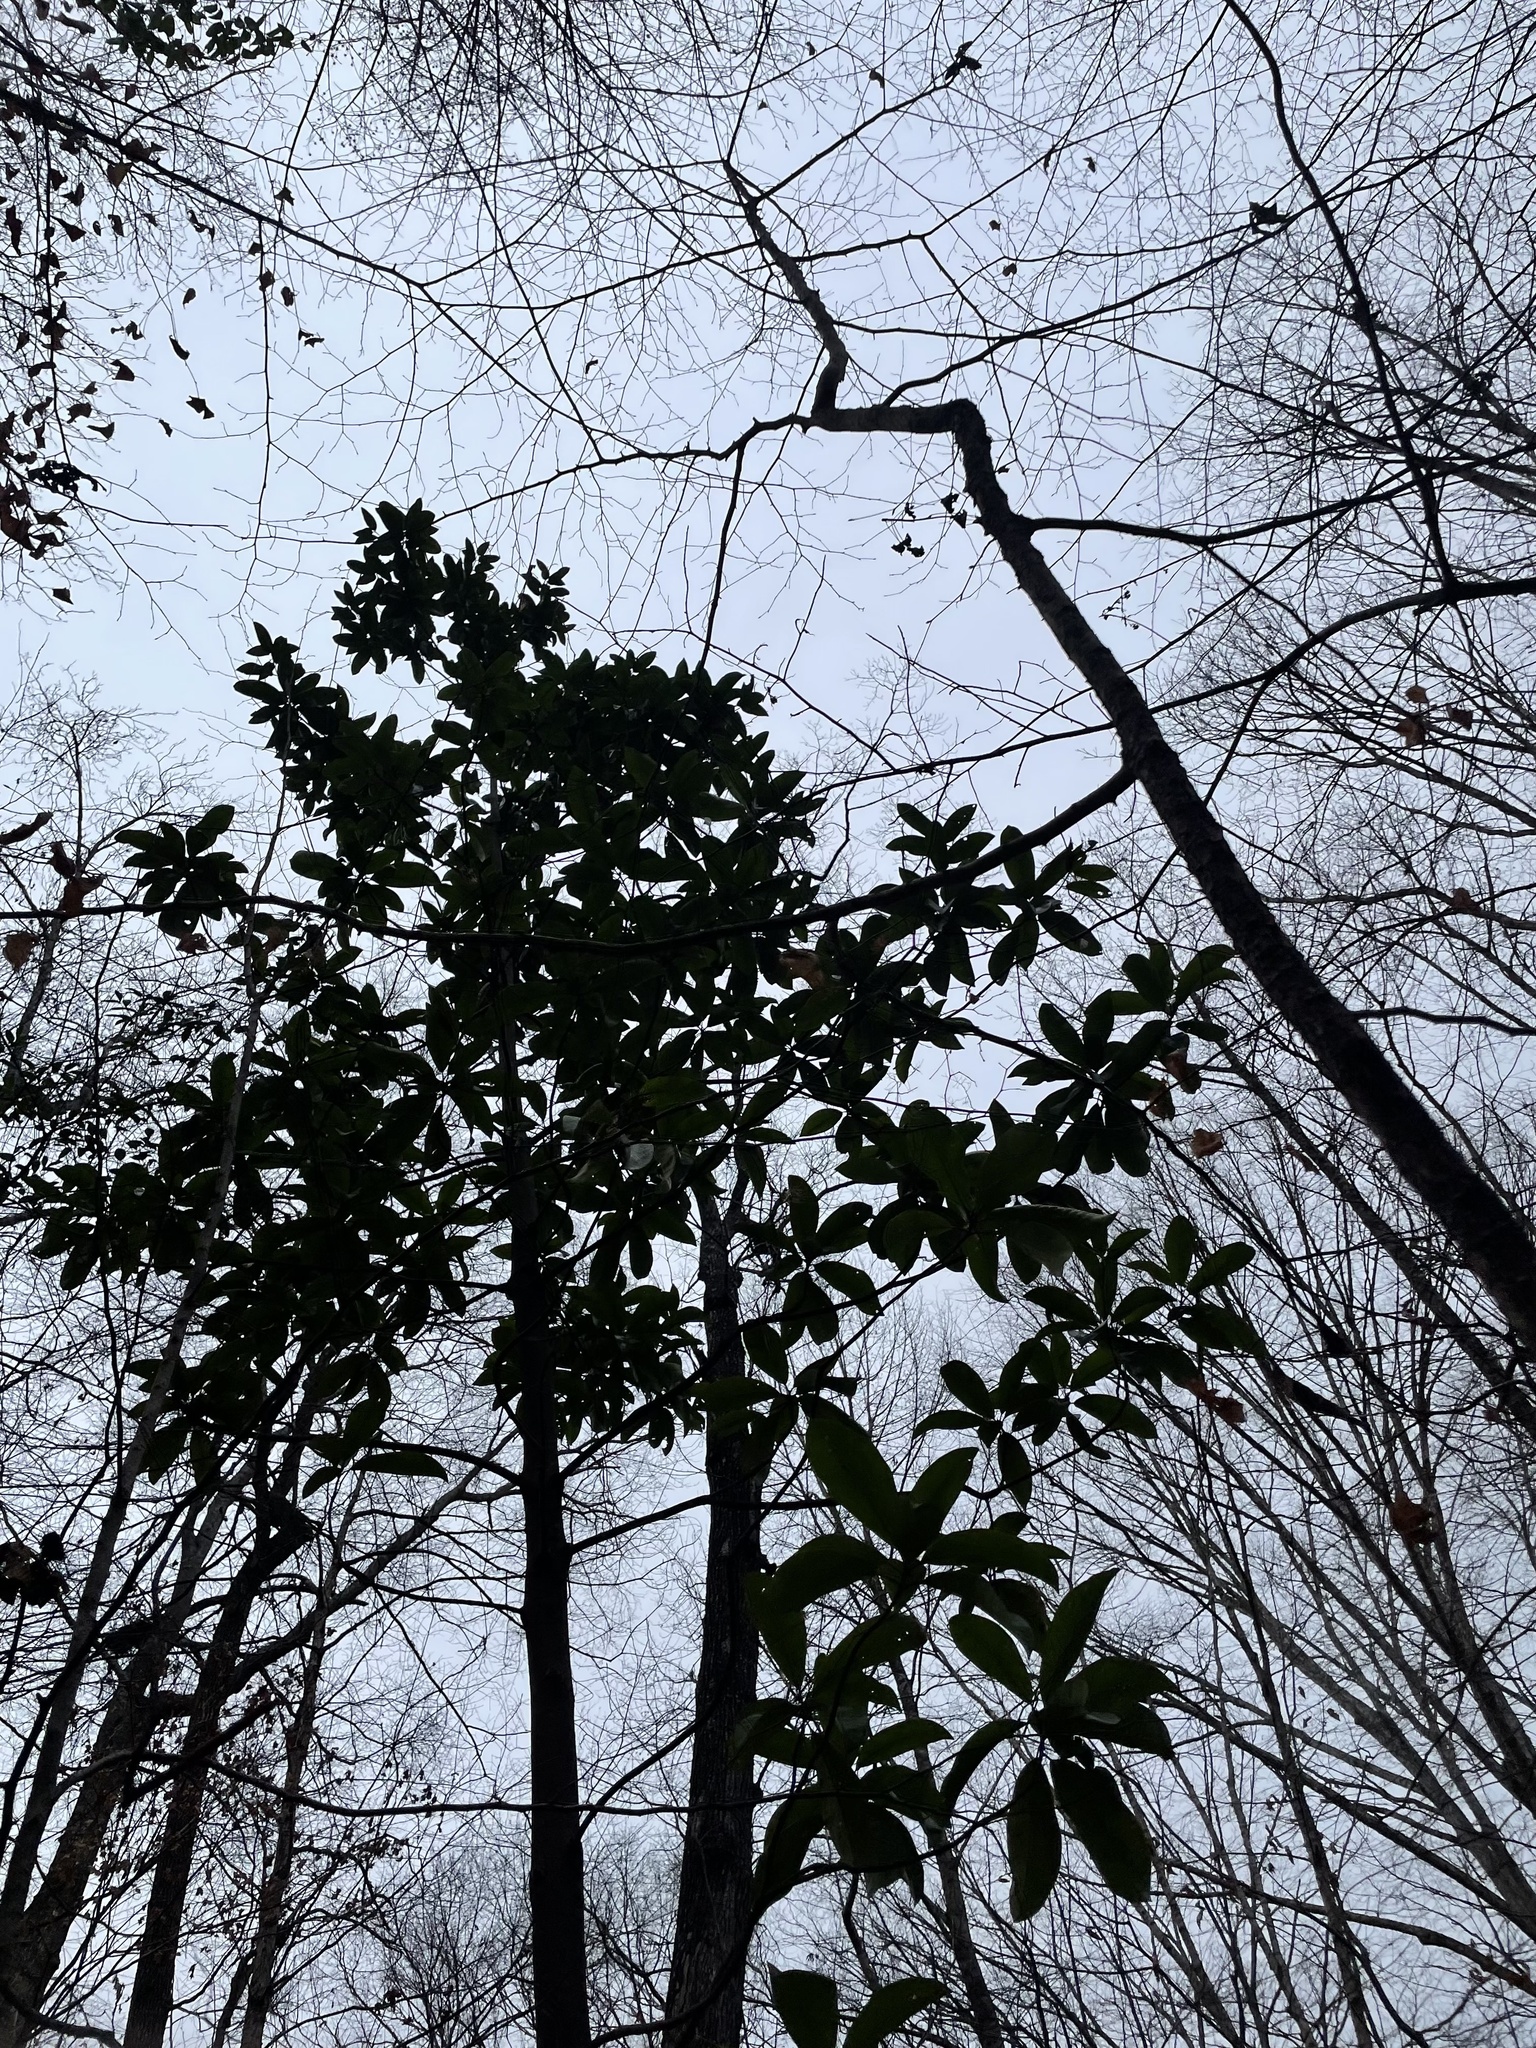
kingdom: Plantae
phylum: Tracheophyta
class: Magnoliopsida
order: Magnoliales
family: Magnoliaceae
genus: Magnolia
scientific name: Magnolia grandiflora
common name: Southern magnolia
